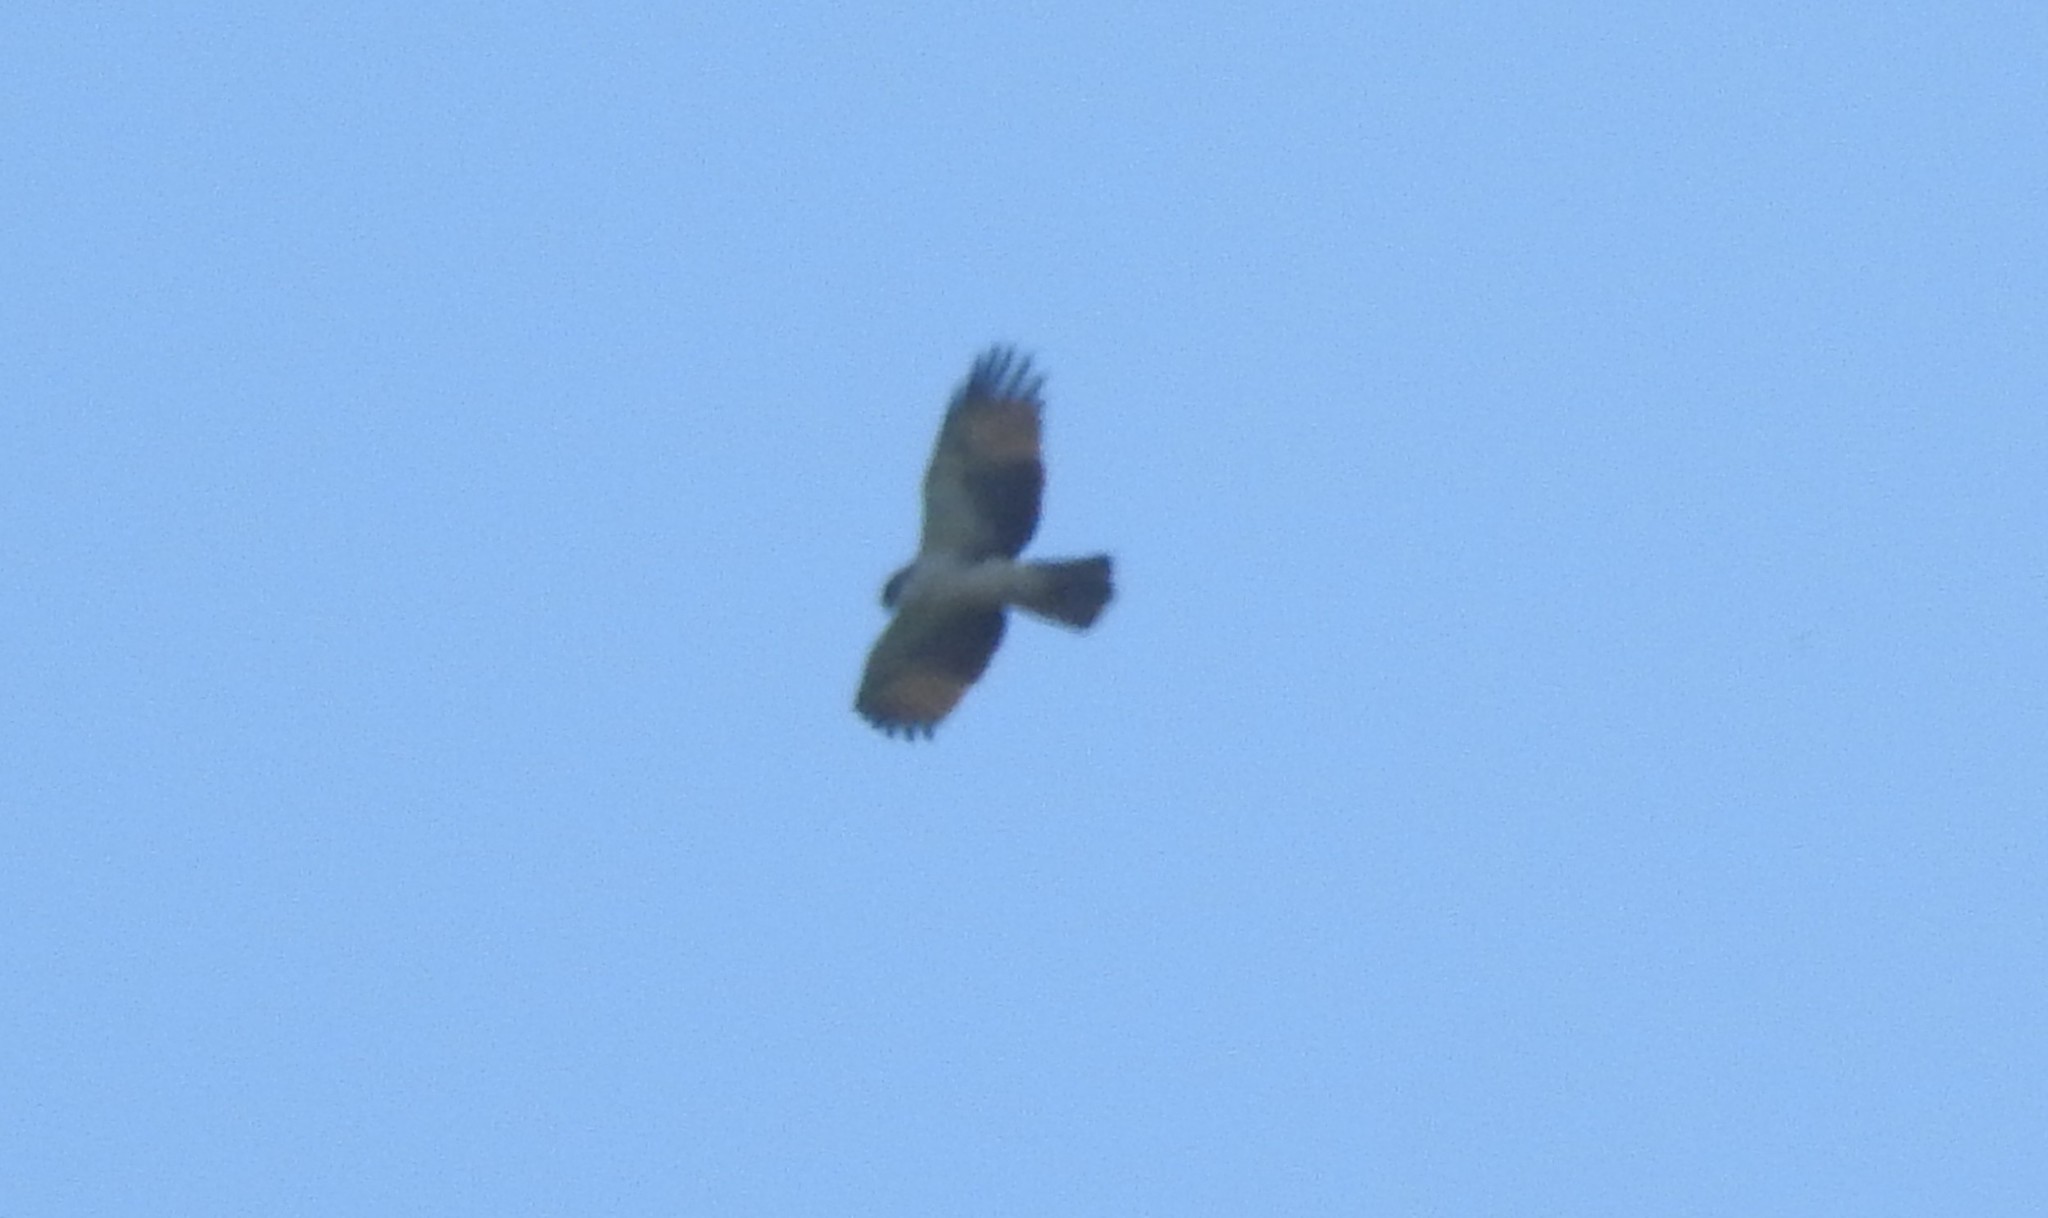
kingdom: Animalia
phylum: Chordata
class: Aves
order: Accipitriformes
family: Accipitridae
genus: Lophotriorchis
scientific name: Lophotriorchis kienerii
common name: Rufous-bellied eagle
